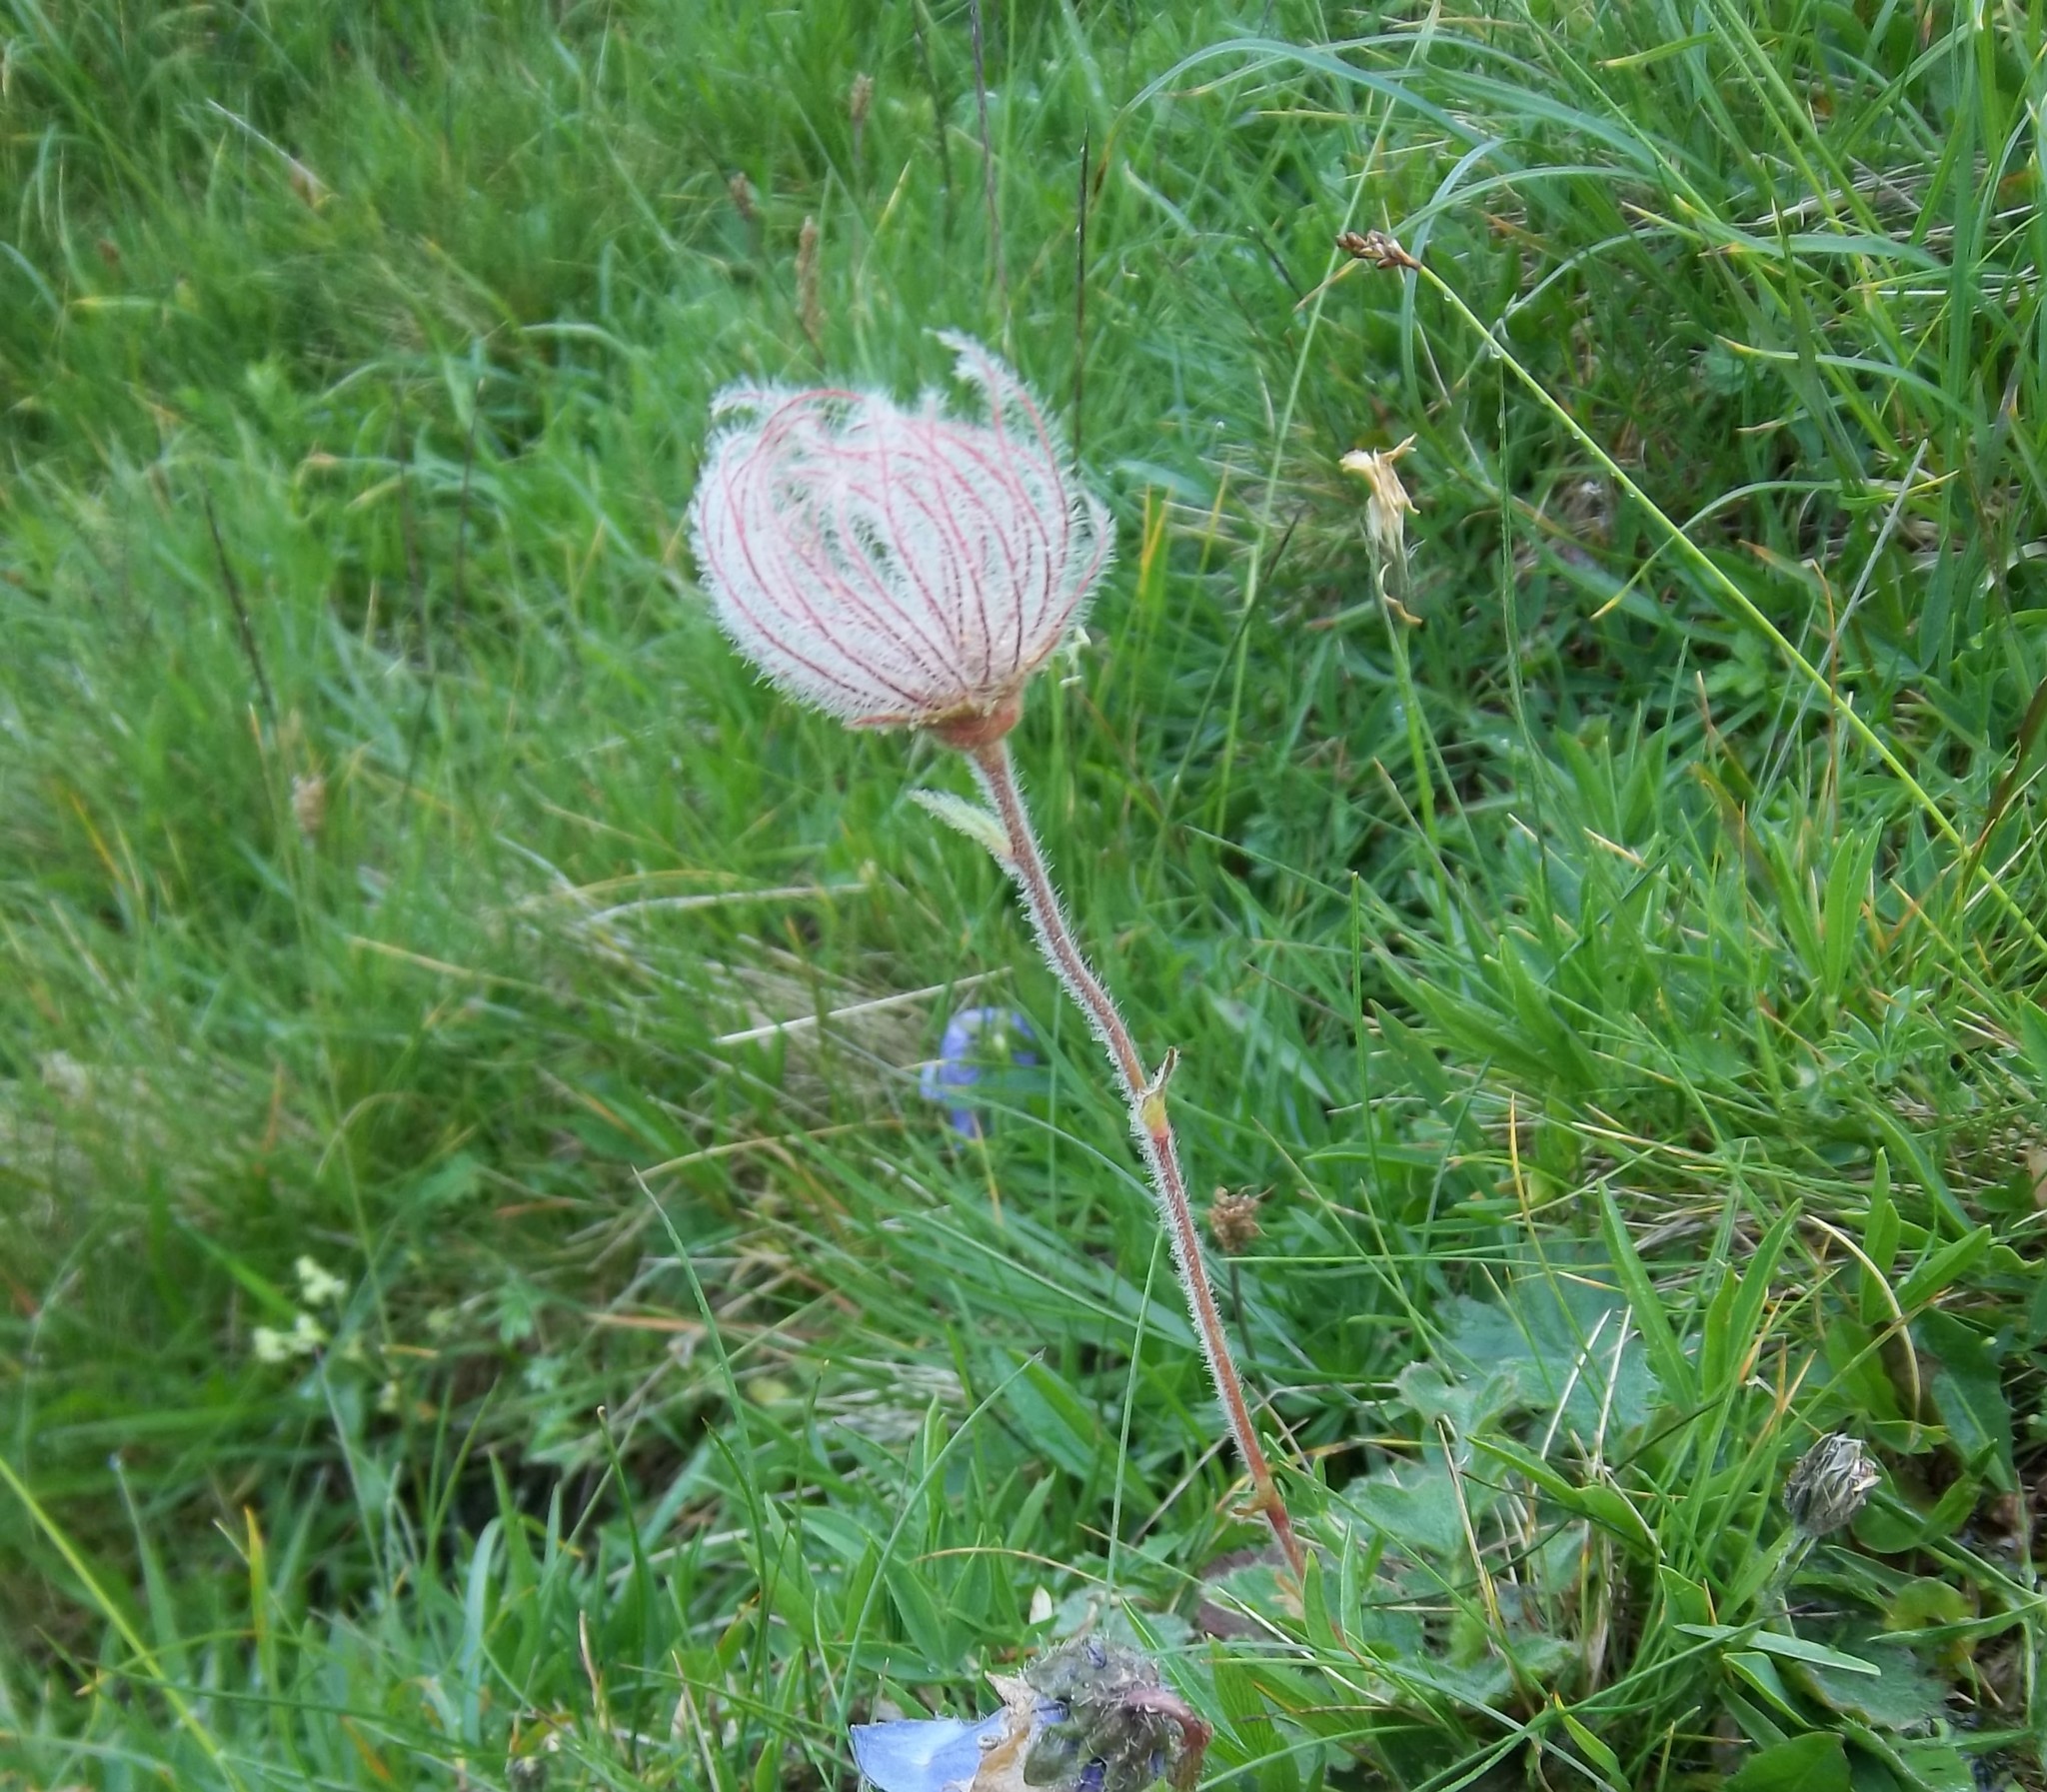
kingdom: Plantae
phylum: Tracheophyta
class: Magnoliopsida
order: Rosales
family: Rosaceae
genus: Geum
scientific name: Geum montanum
